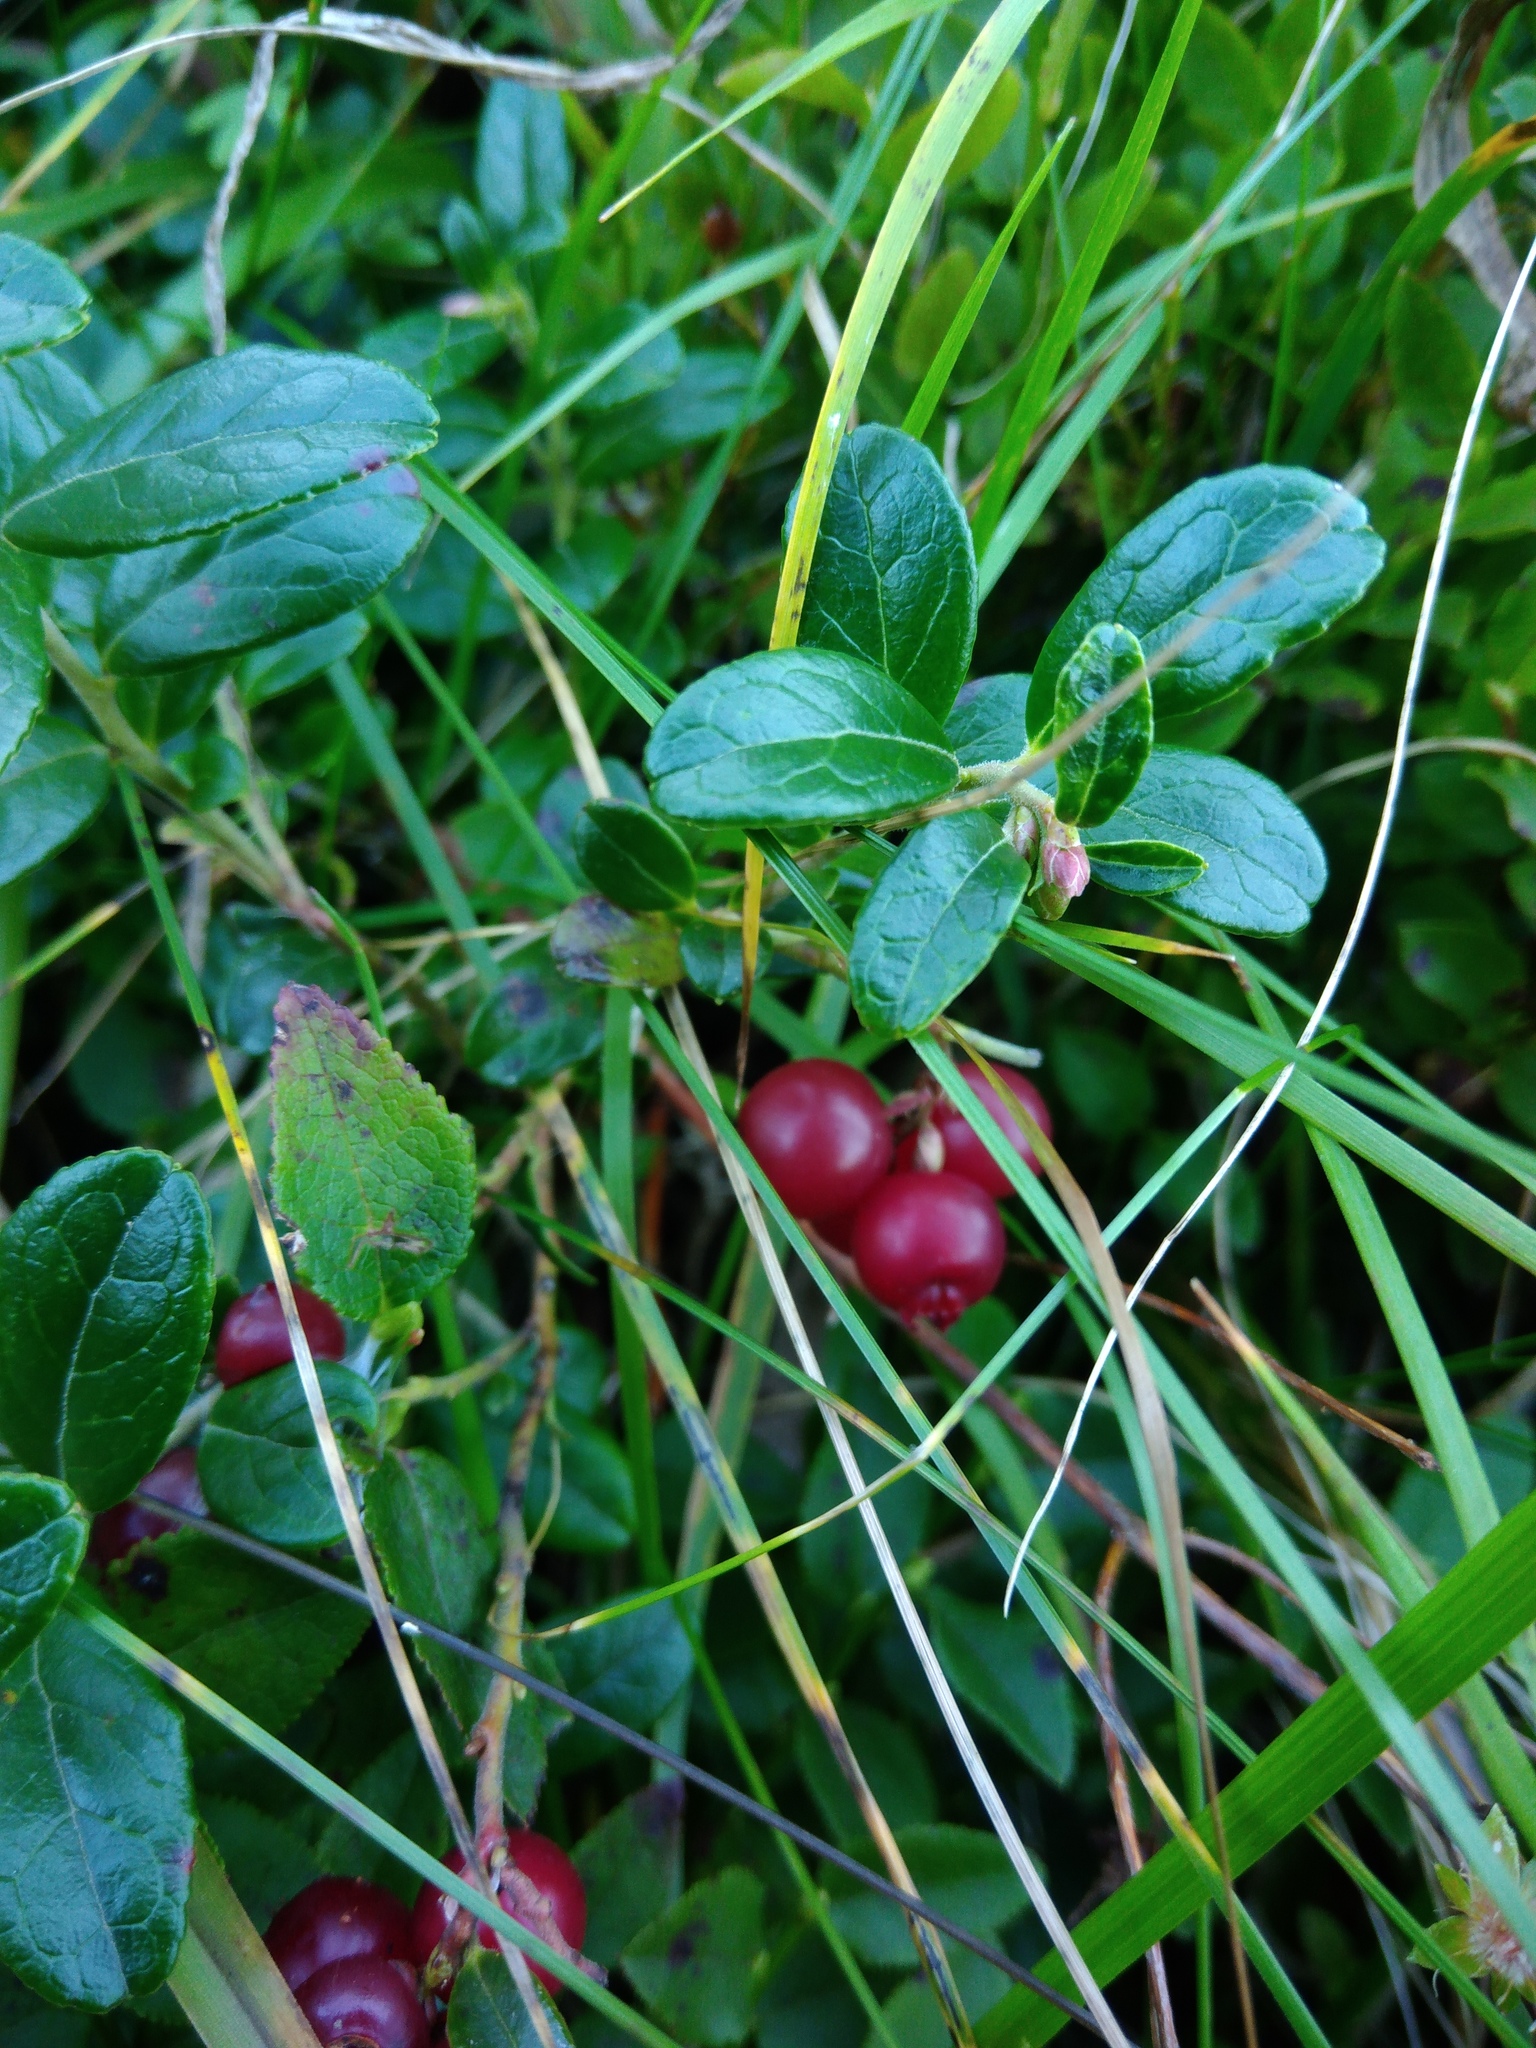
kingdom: Plantae
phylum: Tracheophyta
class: Magnoliopsida
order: Ericales
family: Ericaceae
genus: Vaccinium
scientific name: Vaccinium vitis-idaea
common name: Cowberry
